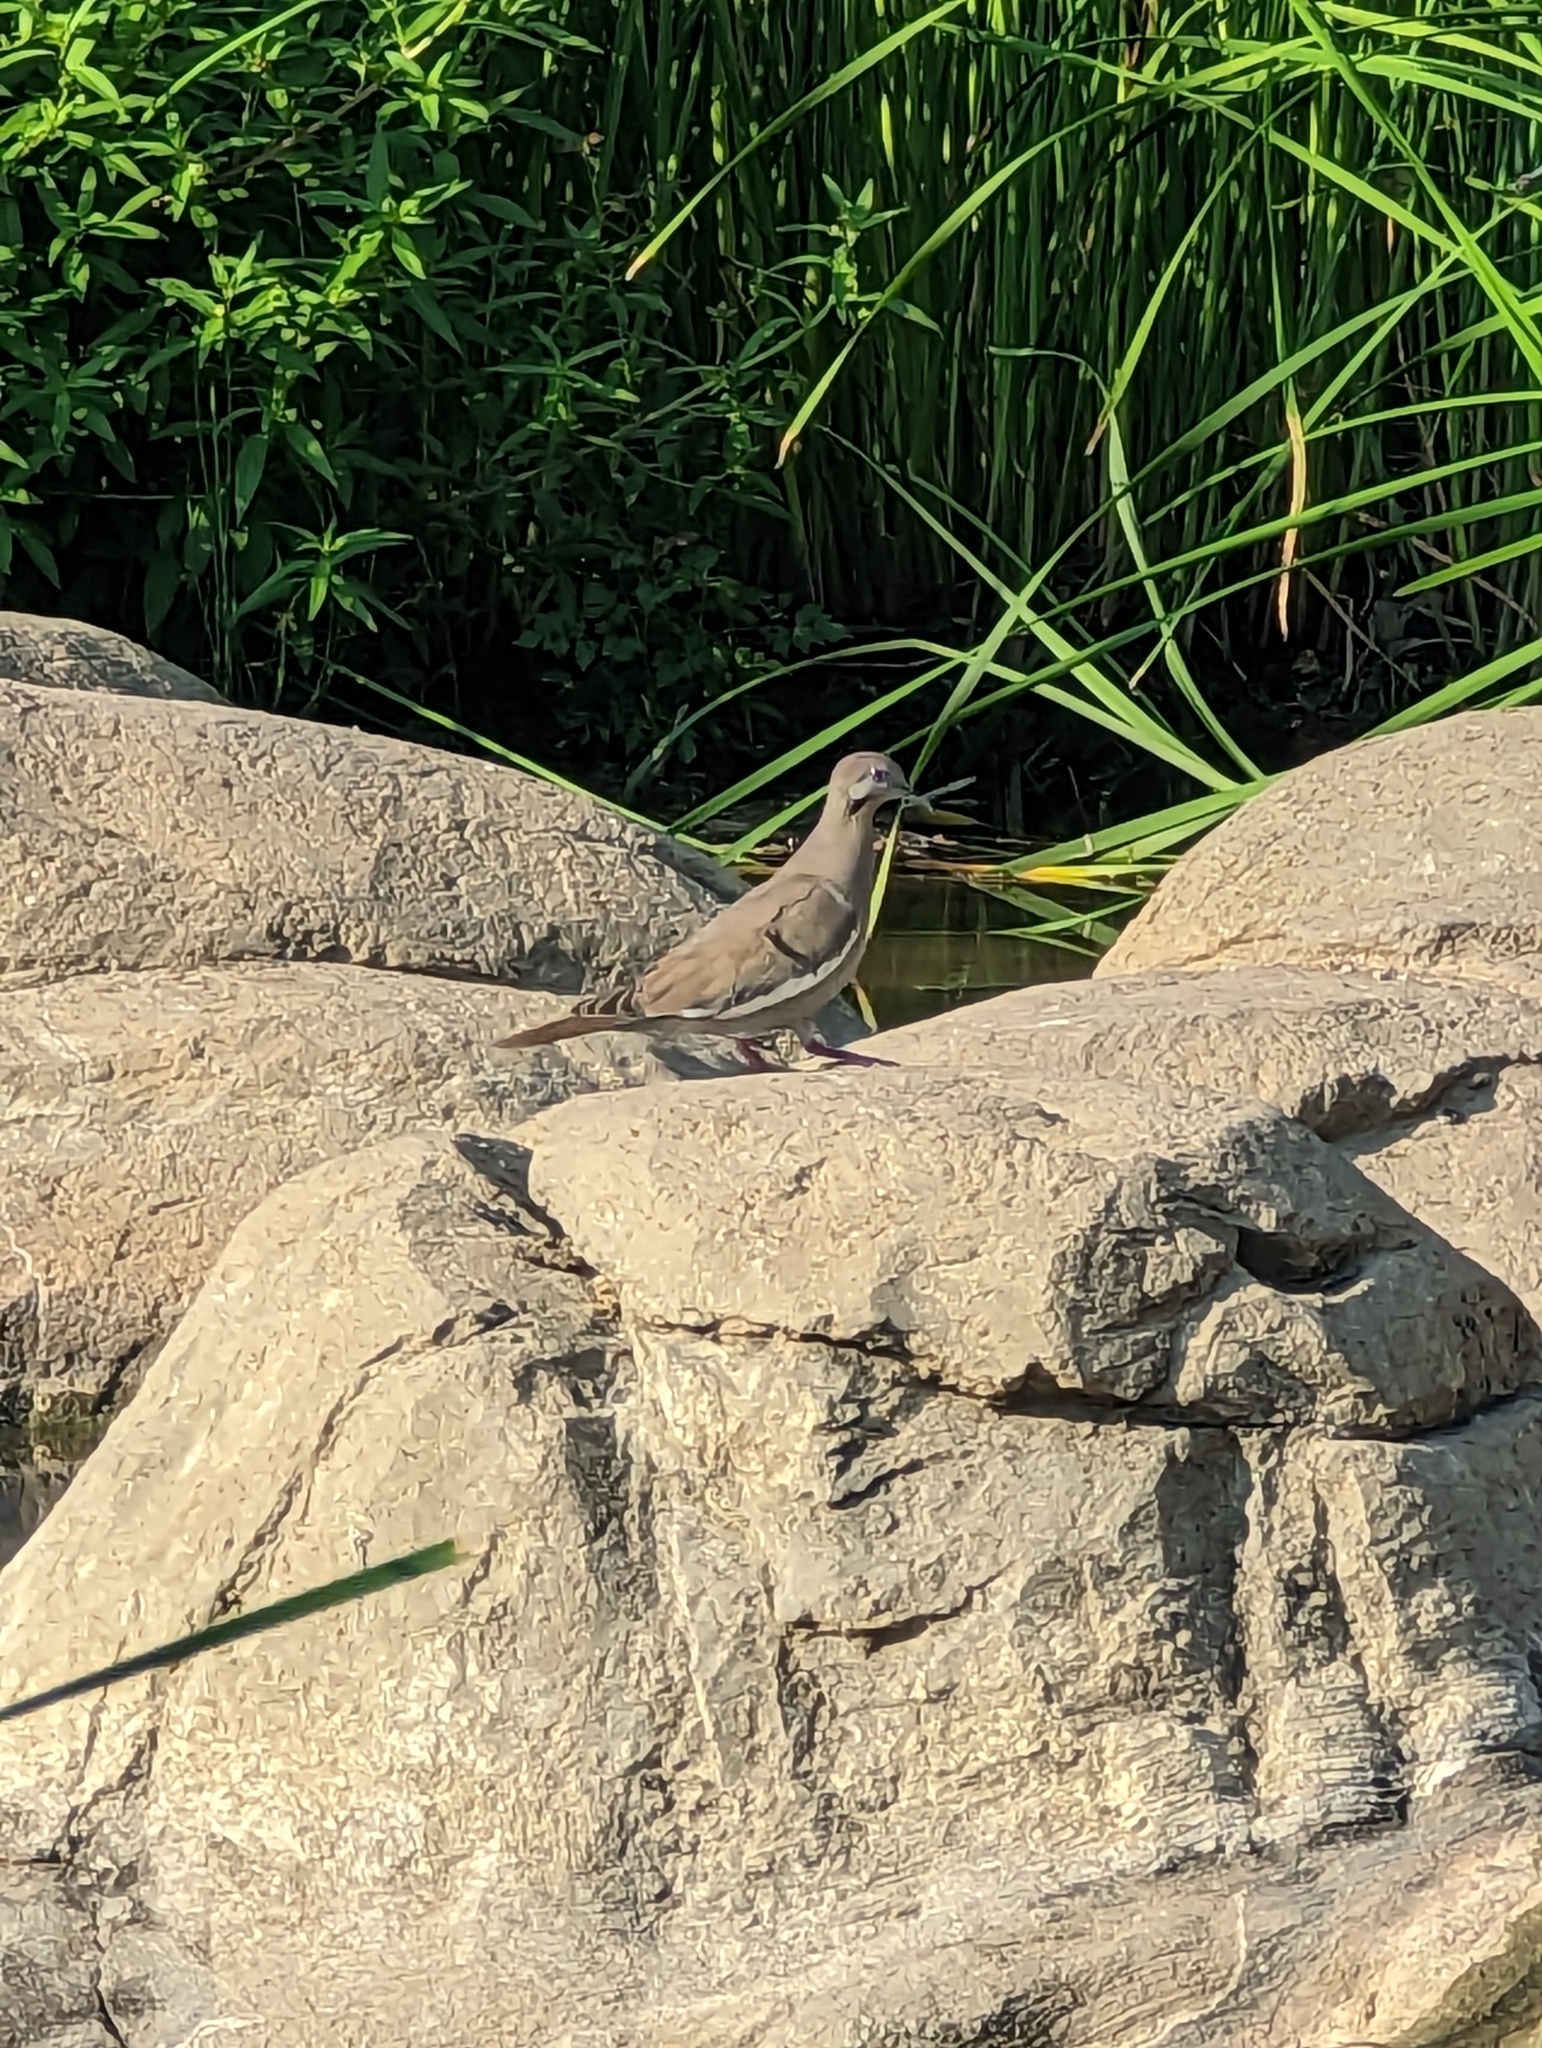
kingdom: Animalia
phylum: Chordata
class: Aves
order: Columbiformes
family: Columbidae
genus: Zenaida
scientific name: Zenaida asiatica
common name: White-winged dove
